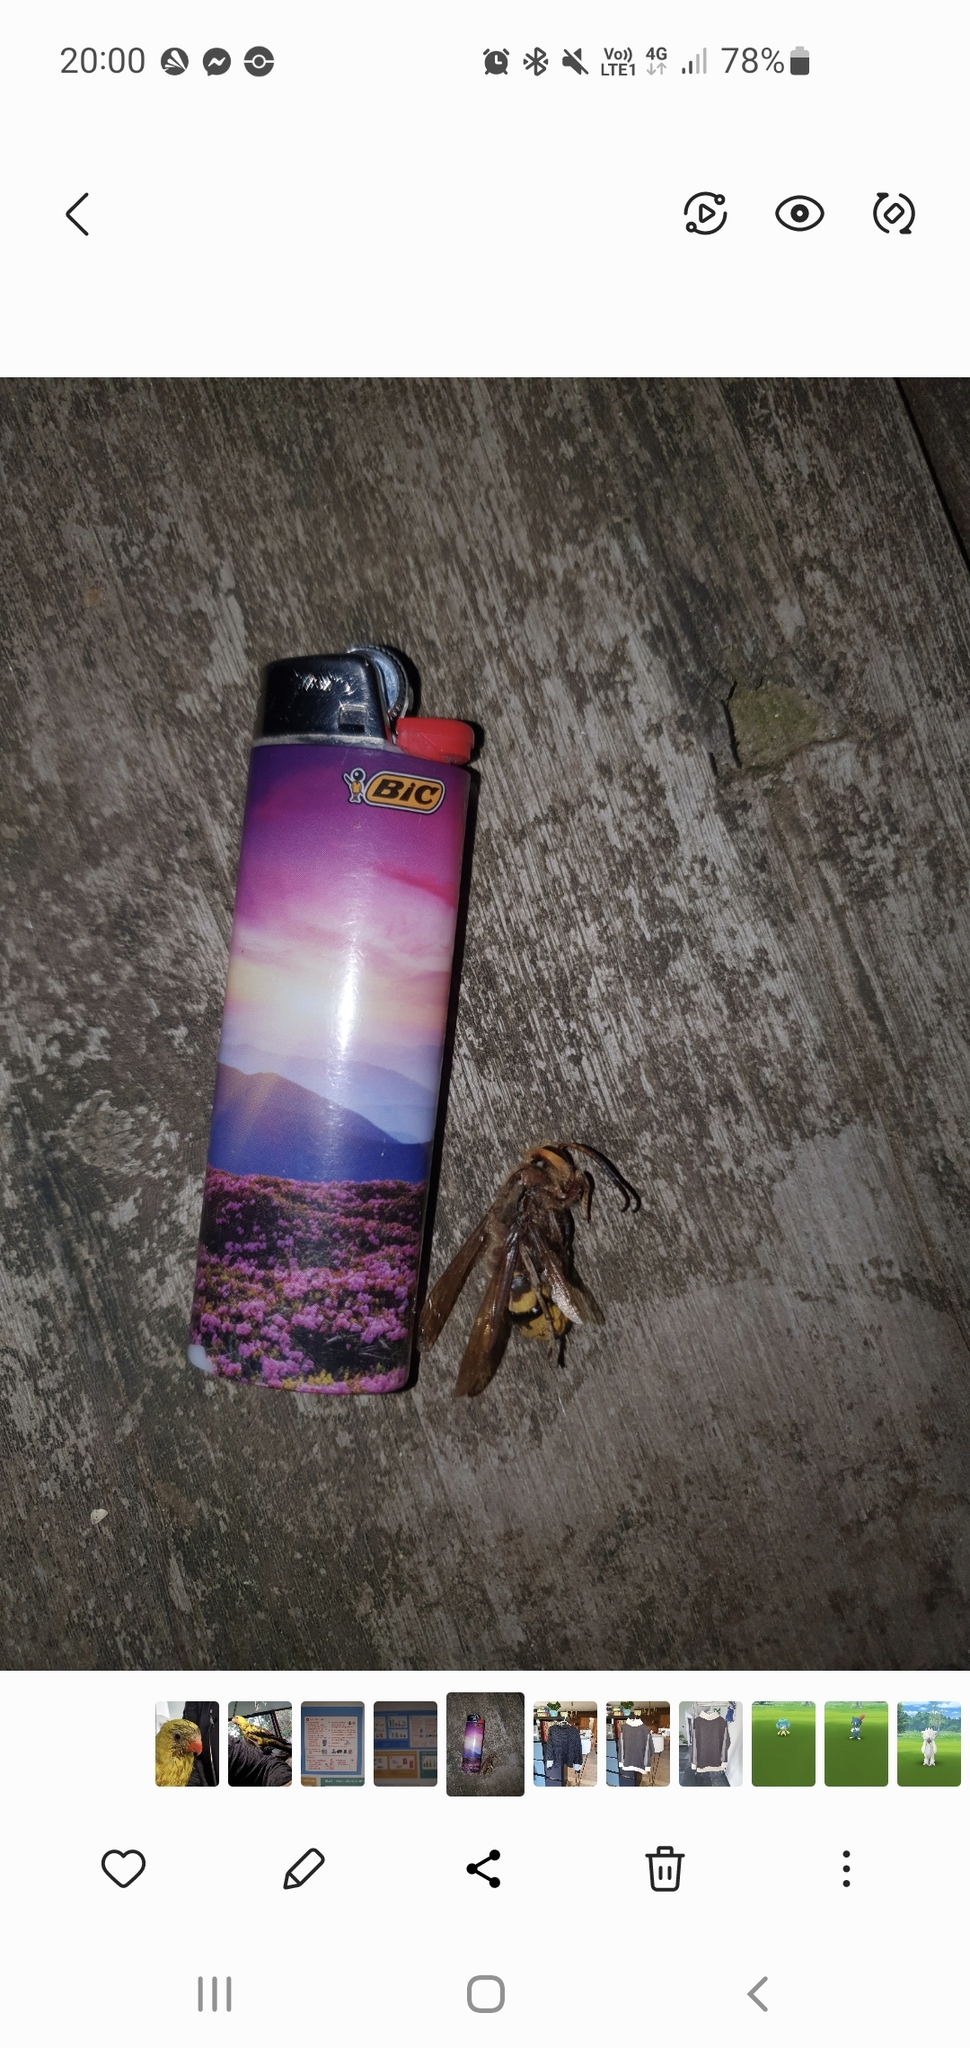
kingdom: Animalia
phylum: Arthropoda
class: Insecta
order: Hymenoptera
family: Vespidae
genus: Vespa
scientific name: Vespa crabro
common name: Hornet
